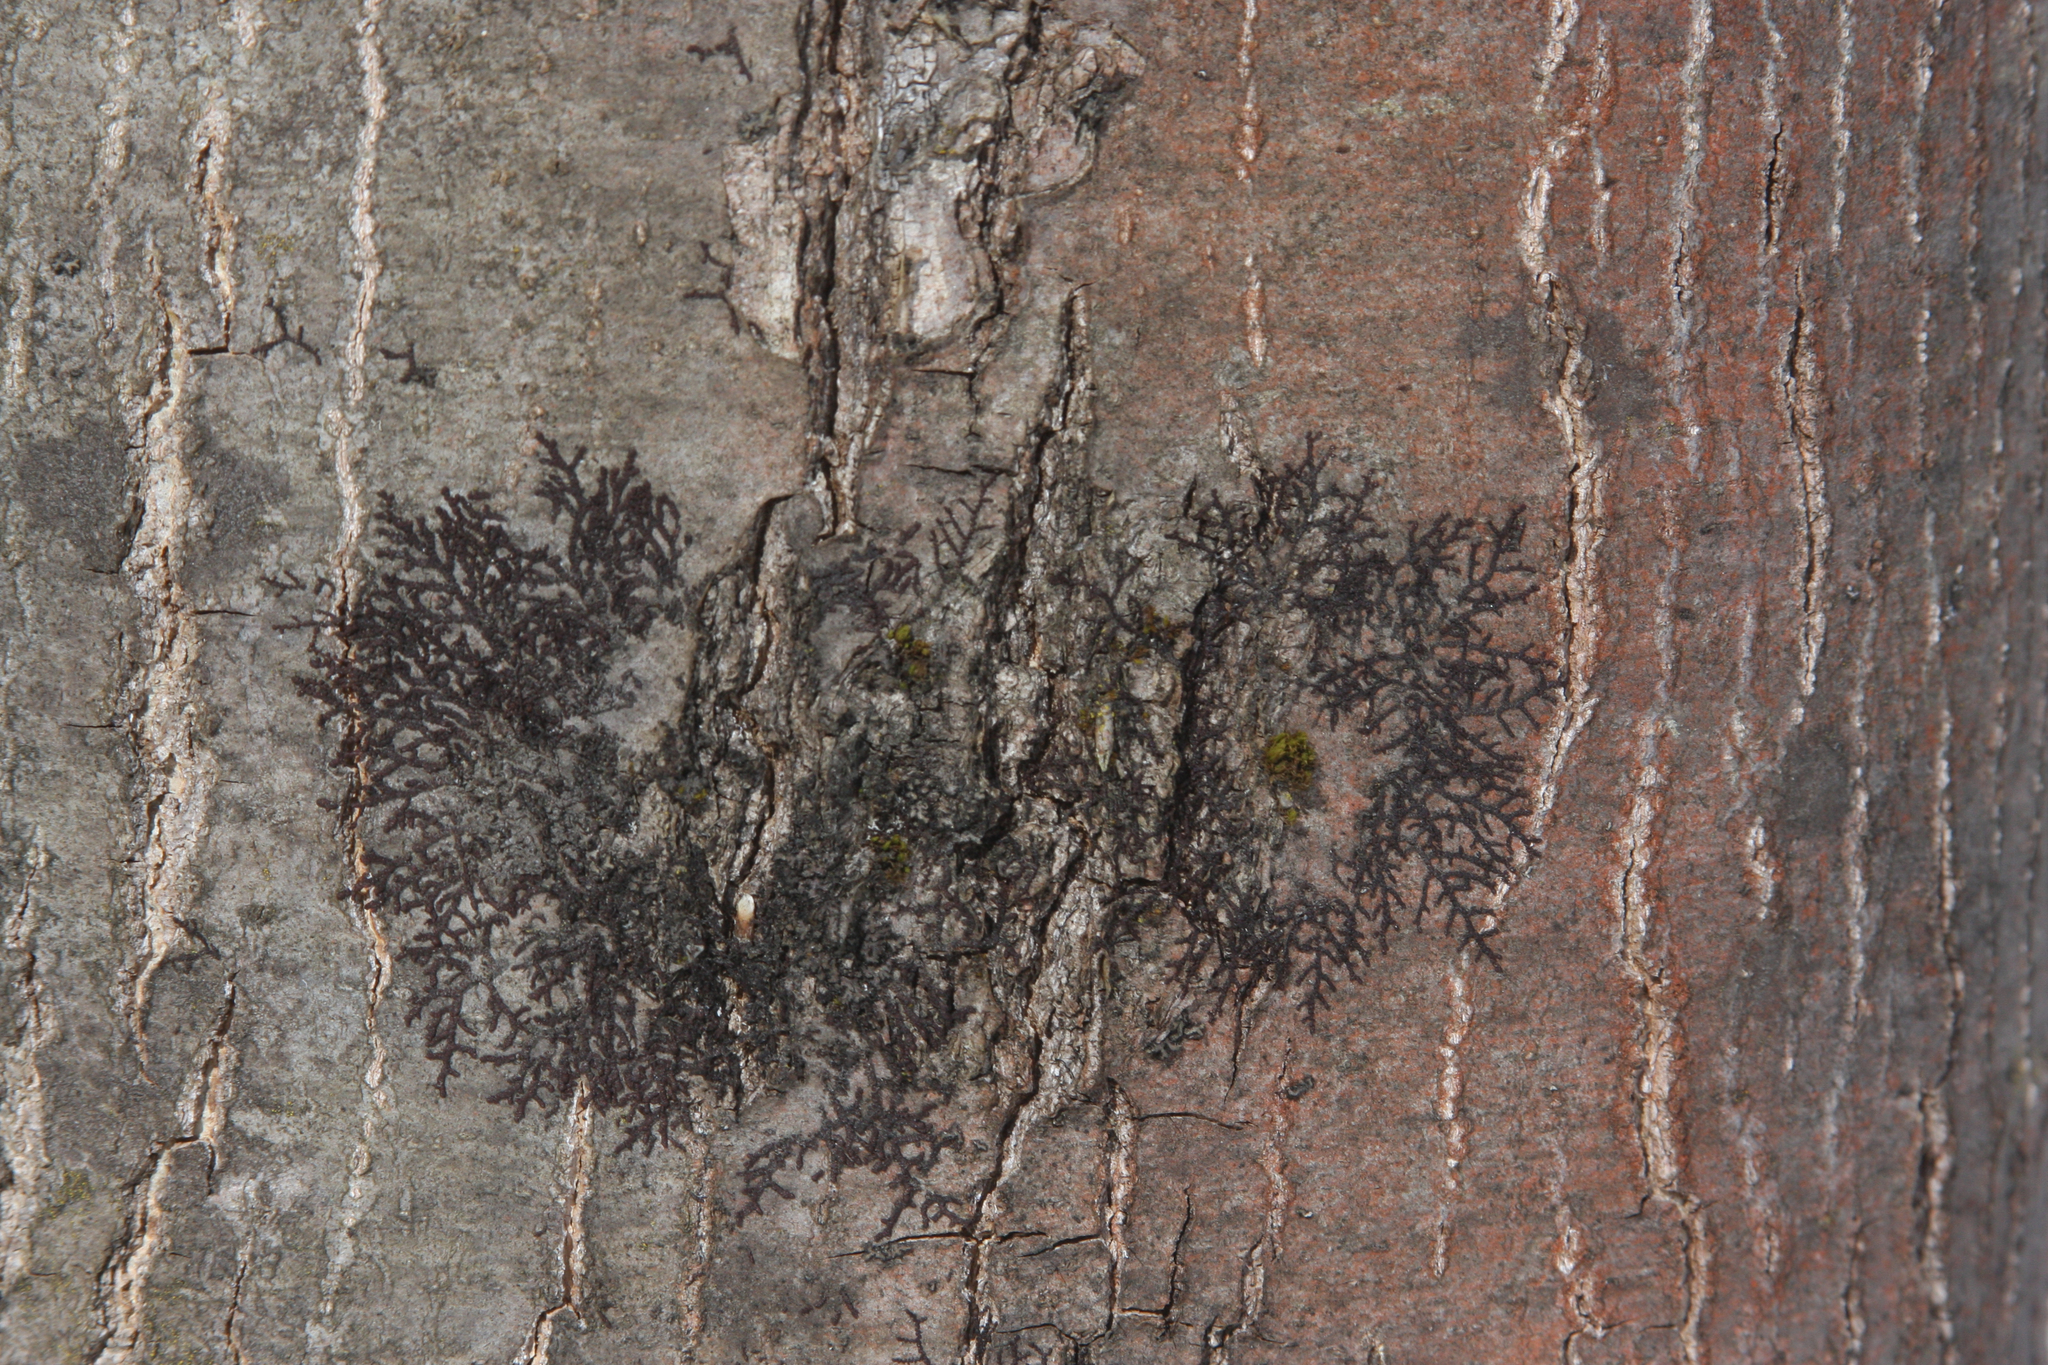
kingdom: Plantae
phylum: Bryophyta
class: Bryopsida
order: Orthotrichales
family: Orthotrichaceae
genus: Ulota
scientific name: Ulota crispa
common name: Crisped pincushion moss
